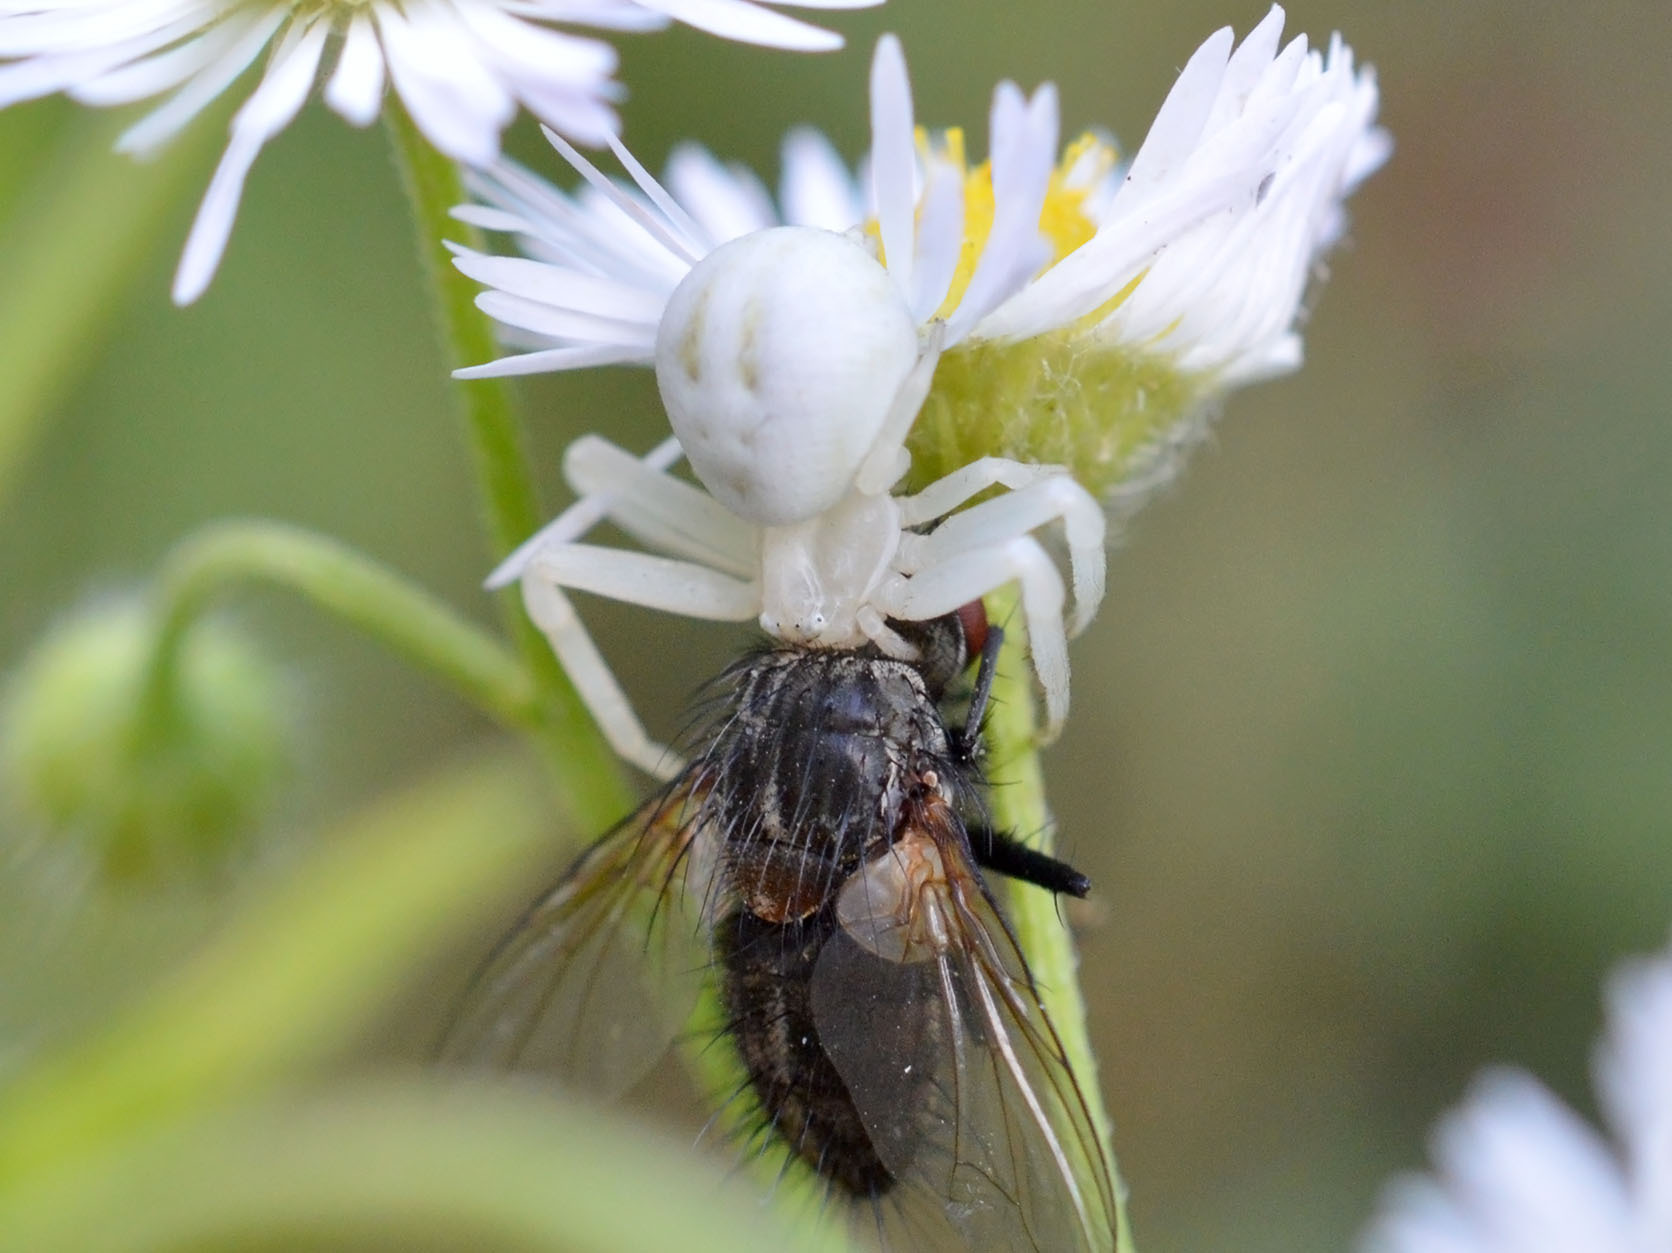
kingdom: Animalia
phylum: Arthropoda
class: Arachnida
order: Araneae
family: Thomisidae
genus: Misumena
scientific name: Misumena vatia
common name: Goldenrod crab spider
